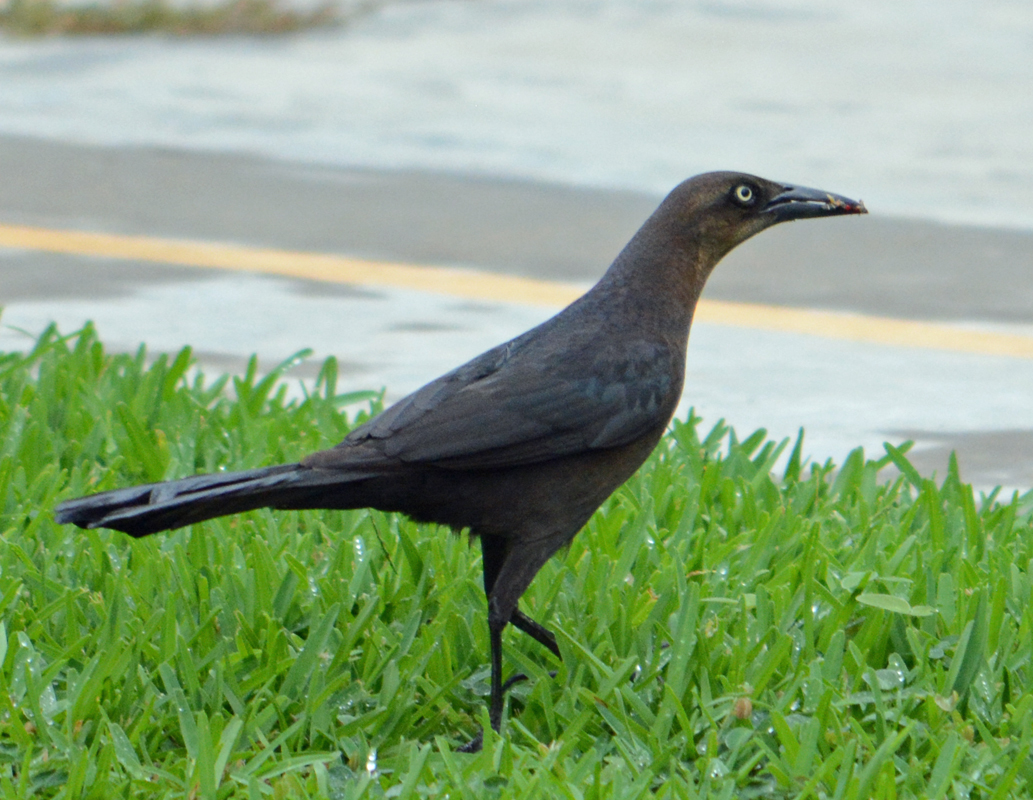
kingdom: Animalia
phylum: Chordata
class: Aves
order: Passeriformes
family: Icteridae
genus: Quiscalus
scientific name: Quiscalus mexicanus
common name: Great-tailed grackle
